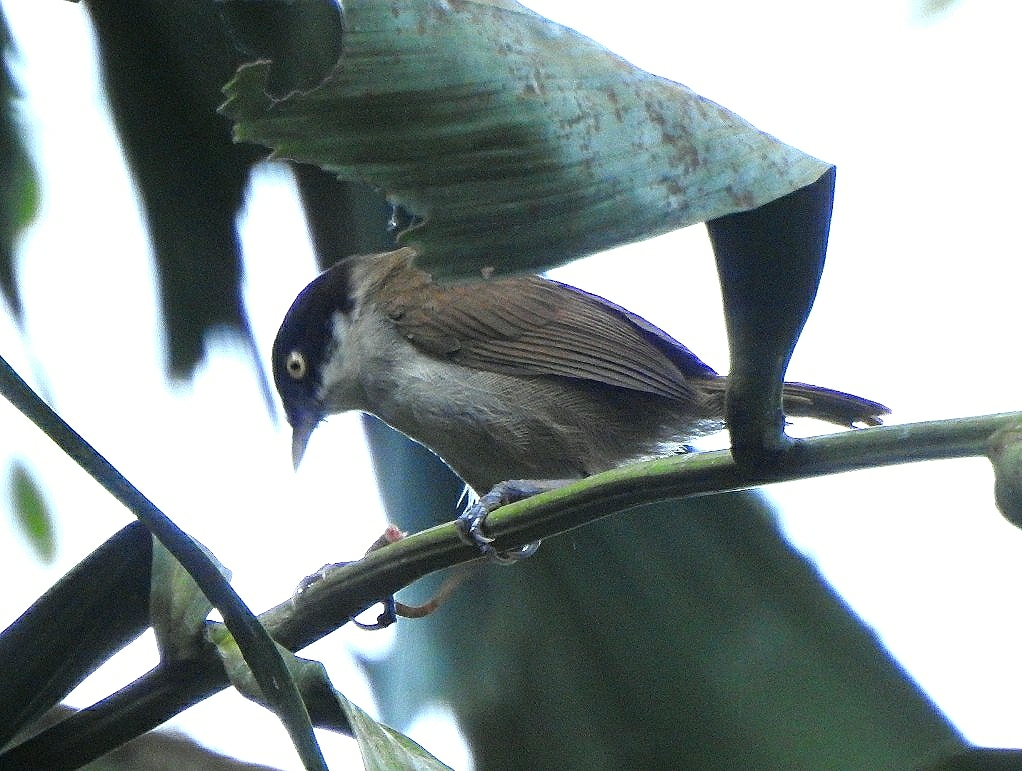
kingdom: Animalia
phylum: Chordata
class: Aves
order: Passeriformes
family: Timaliidae
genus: Rhopocichla
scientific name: Rhopocichla atriceps
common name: Dark-fronted babbler
